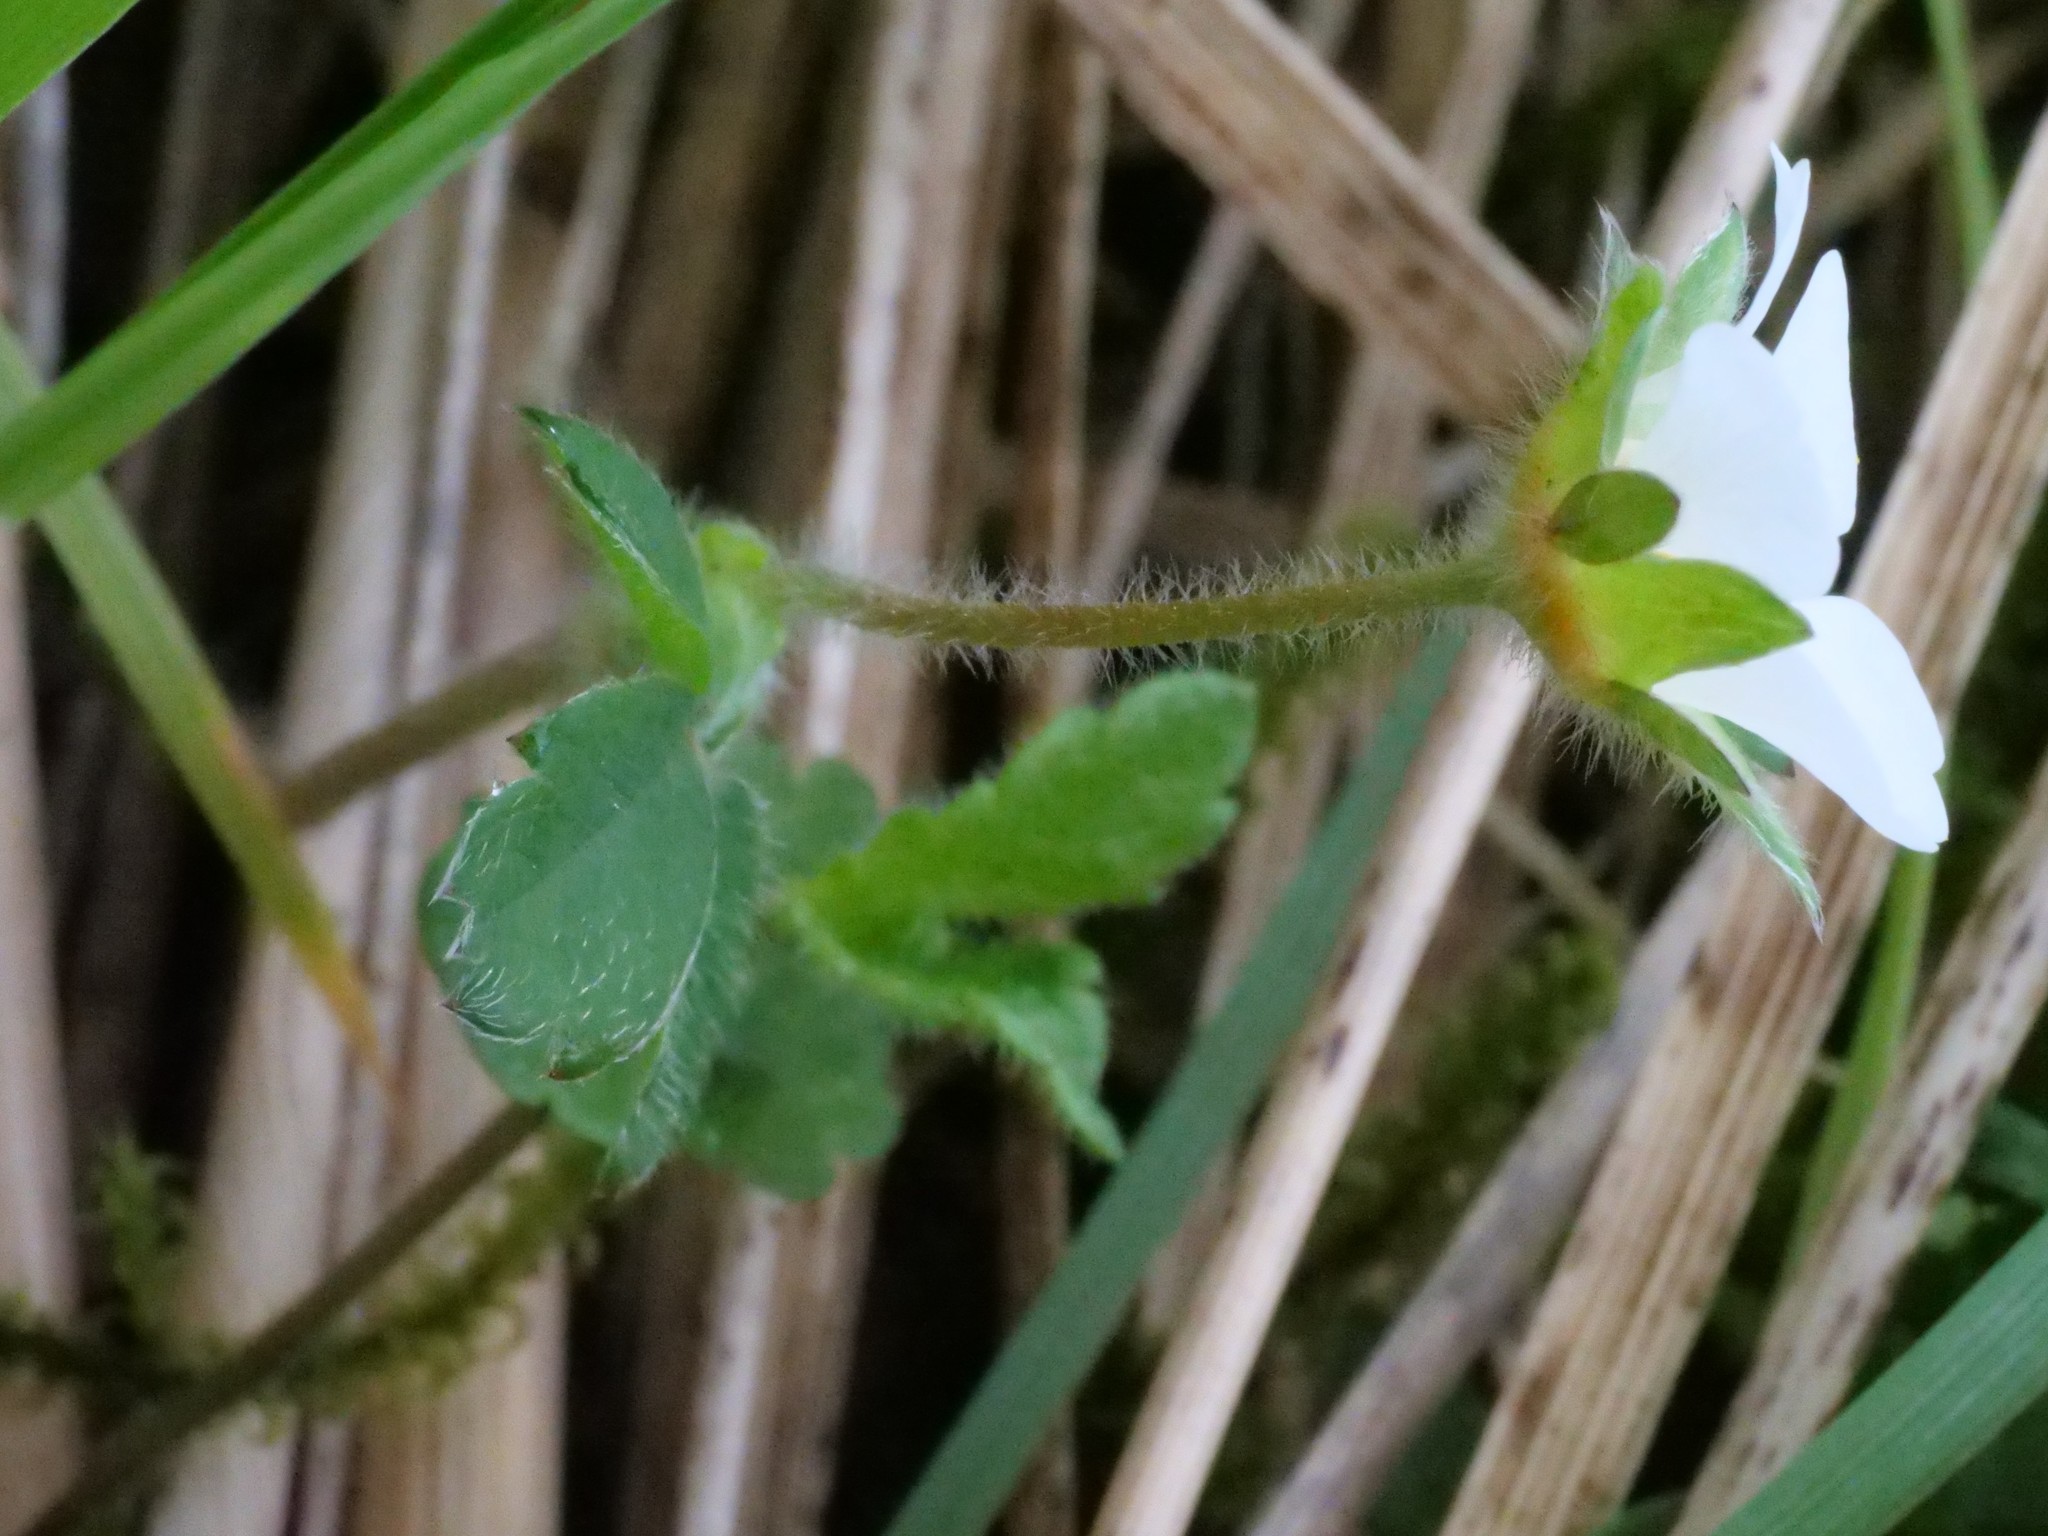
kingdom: Plantae
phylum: Tracheophyta
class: Magnoliopsida
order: Rosales
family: Rosaceae
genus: Potentilla
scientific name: Potentilla sterilis
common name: Barren strawberry
